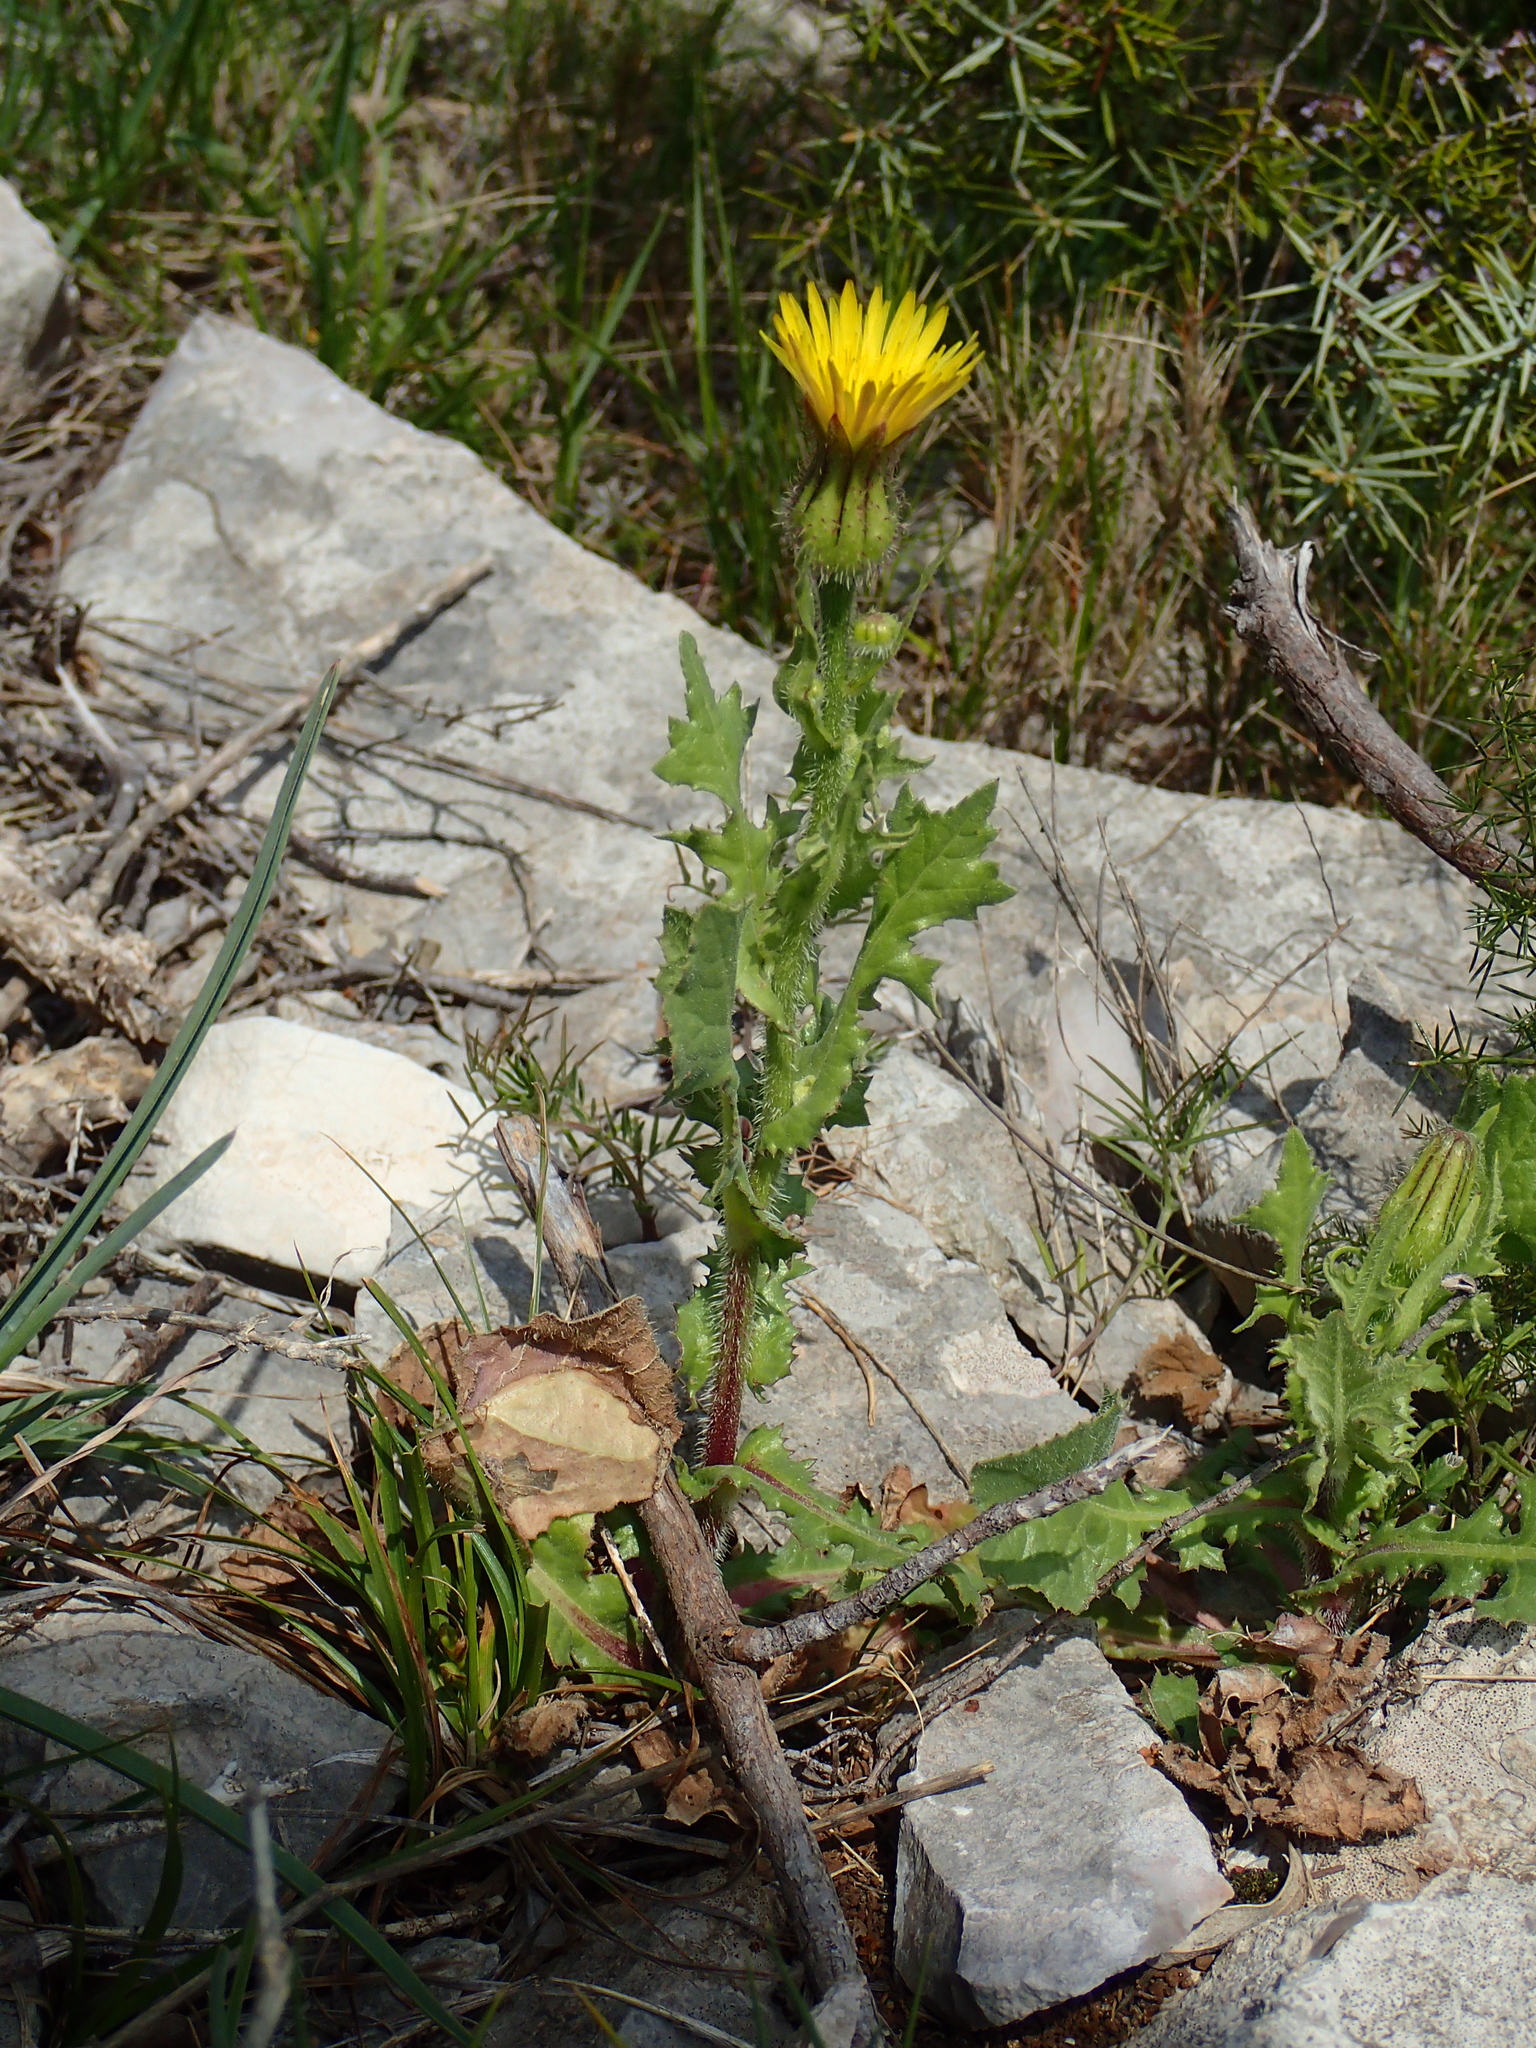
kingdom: Plantae
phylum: Tracheophyta
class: Magnoliopsida
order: Asterales
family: Asteraceae
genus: Urospermum
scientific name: Urospermum picroides
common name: False hawkbit
